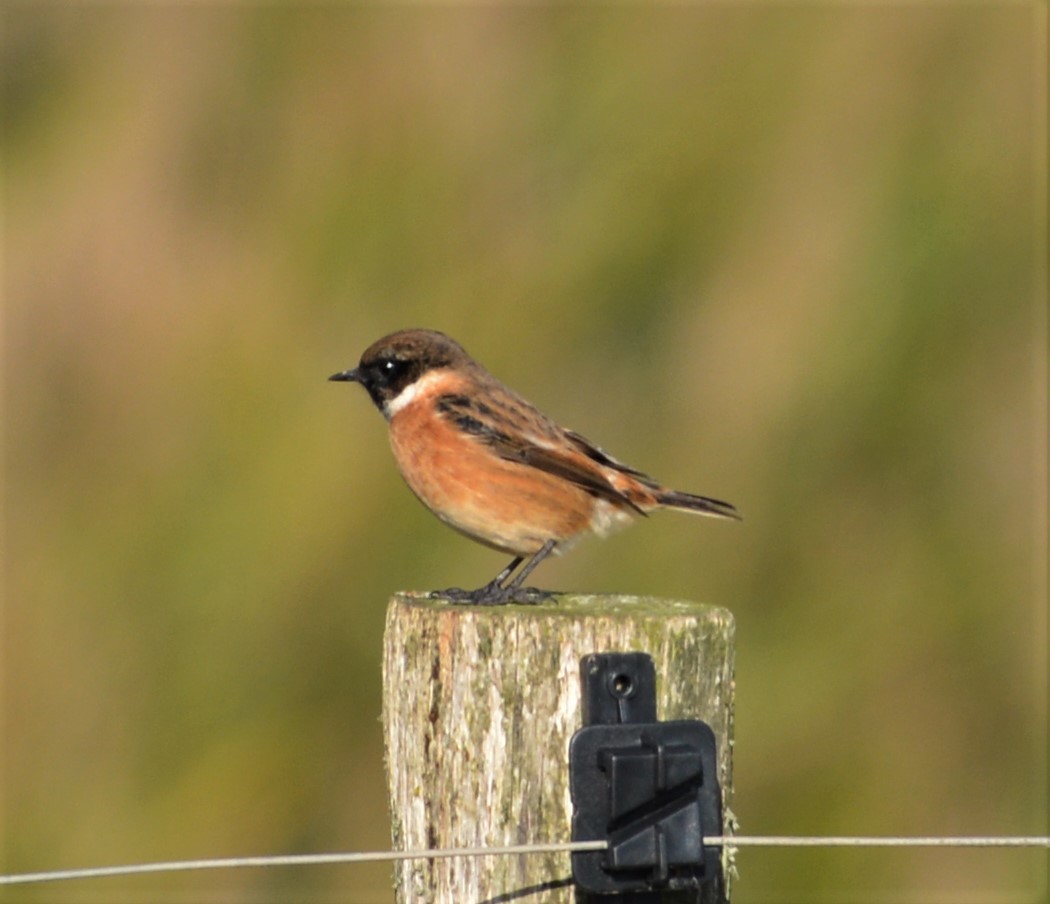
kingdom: Animalia
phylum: Chordata
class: Aves
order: Passeriformes
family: Muscicapidae
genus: Saxicola
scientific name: Saxicola rubicola
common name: European stonechat
